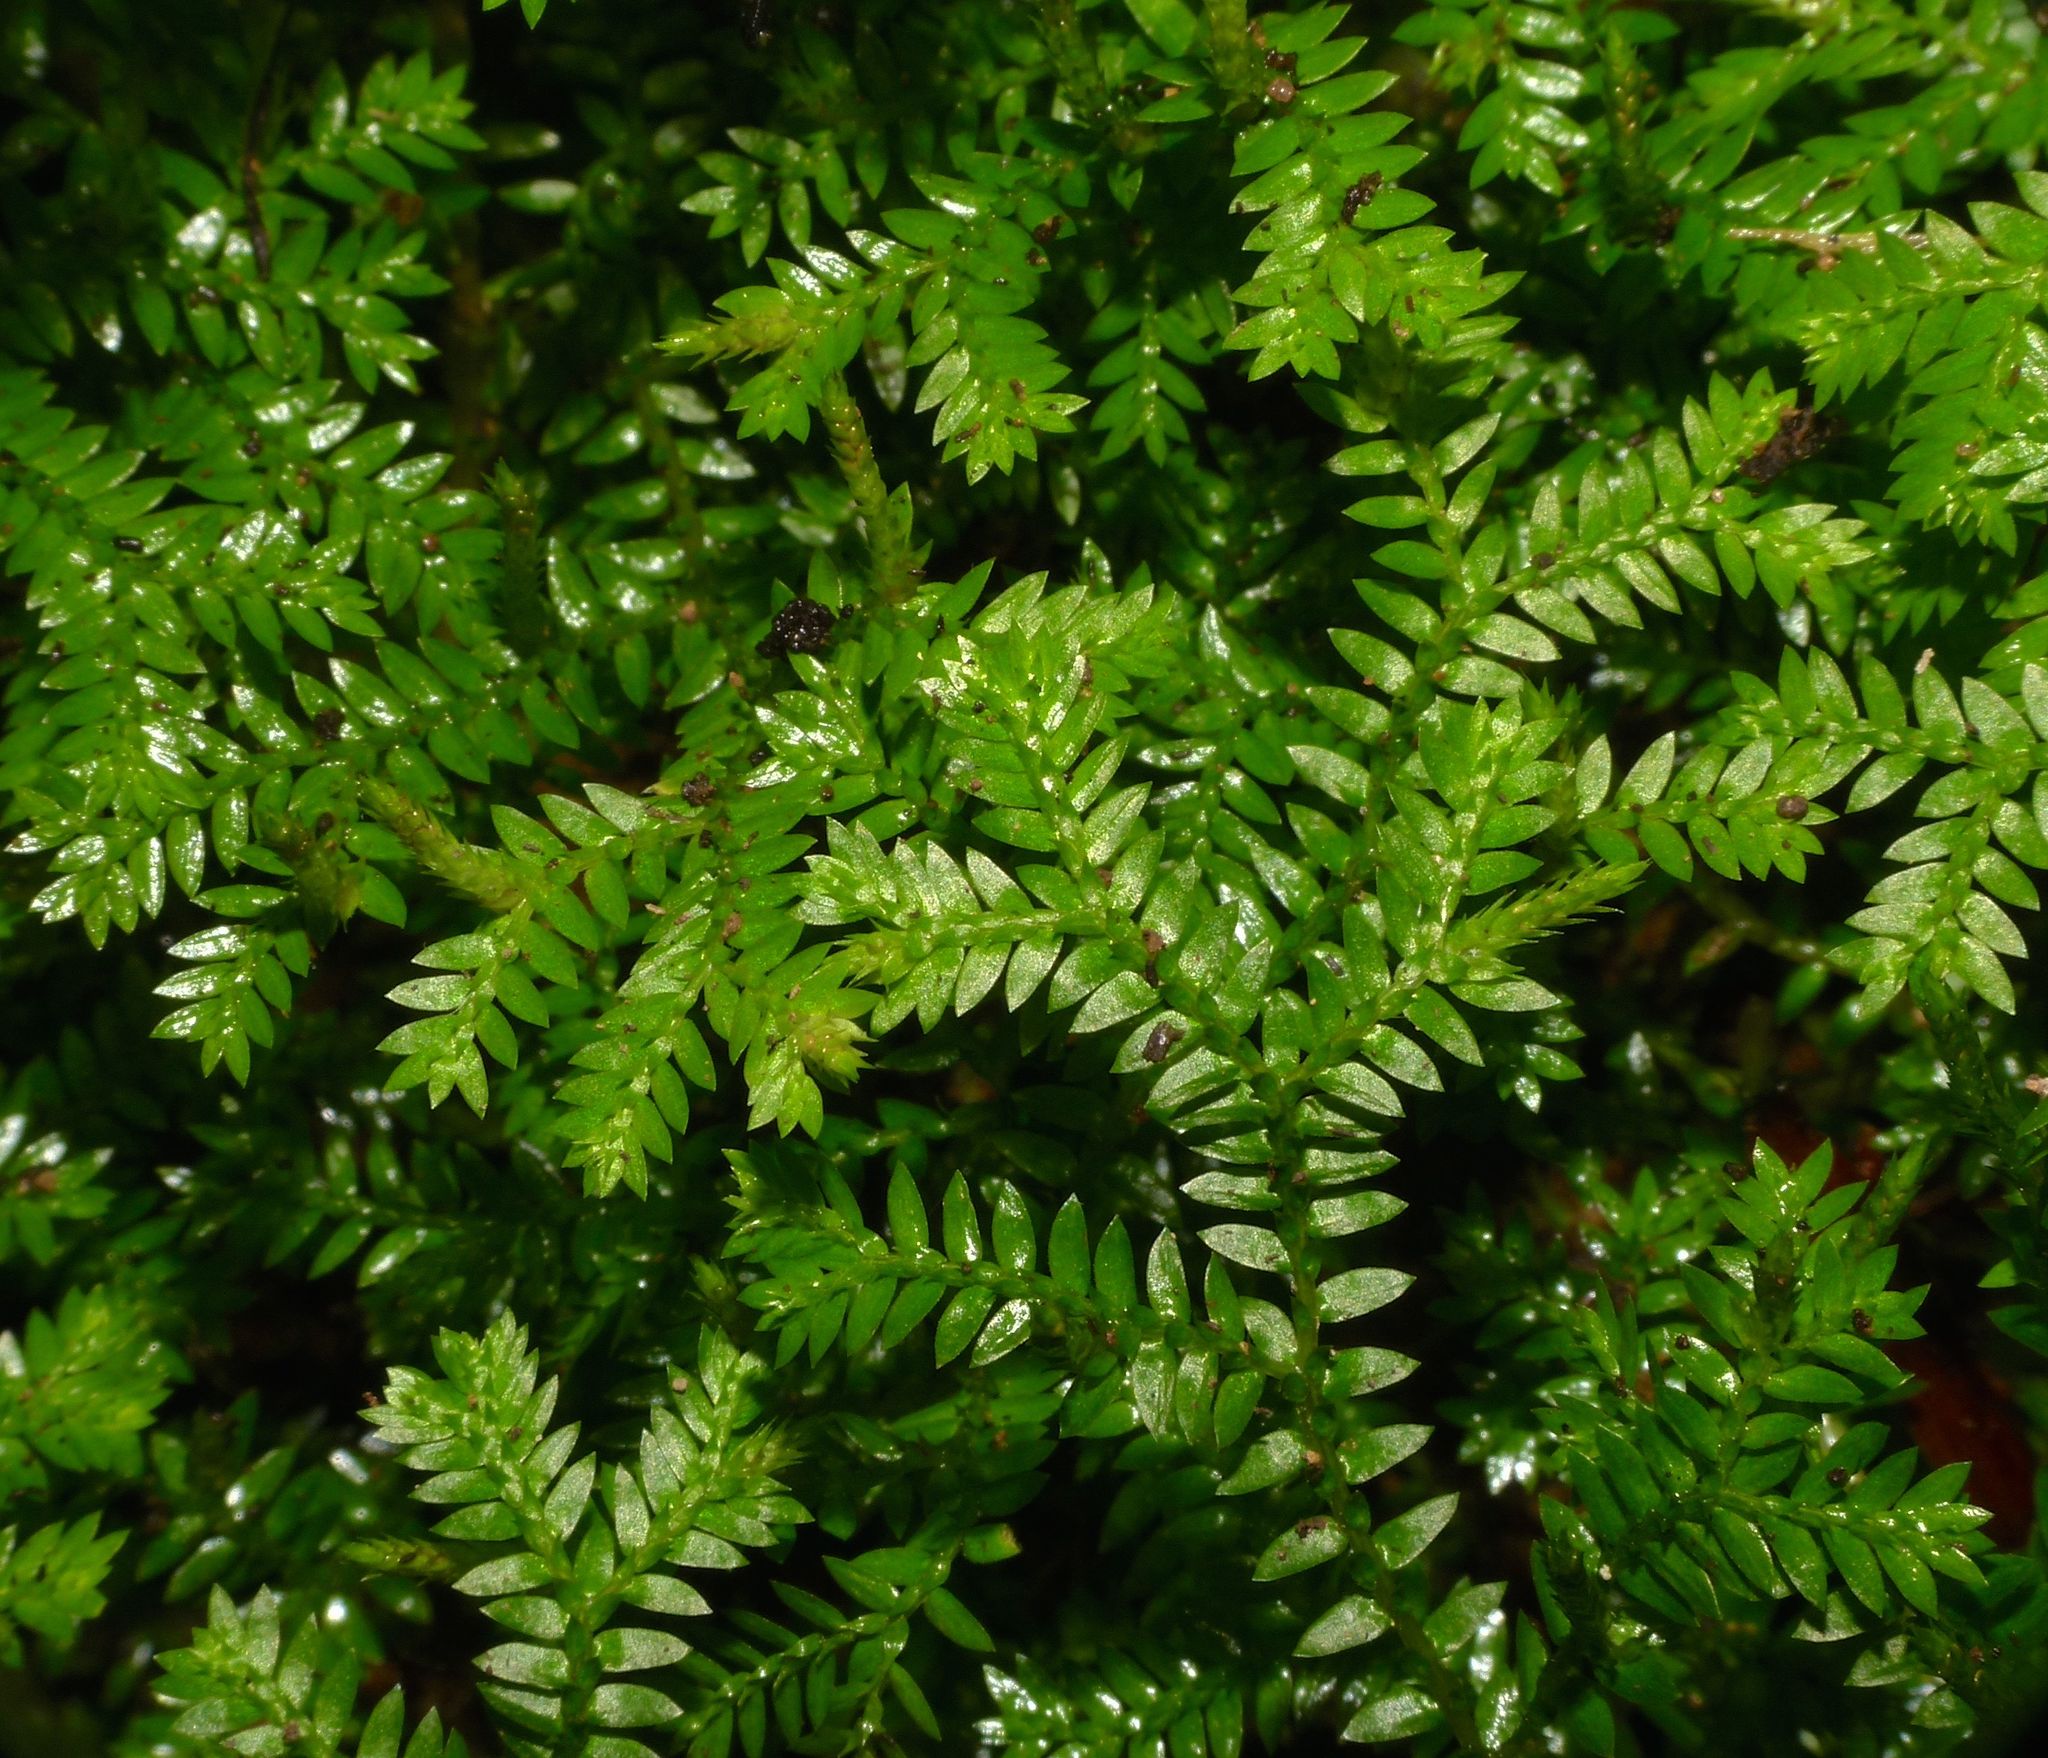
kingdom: Plantae
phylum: Tracheophyta
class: Lycopodiopsida
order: Selaginellales
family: Selaginellaceae
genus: Selaginella
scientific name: Selaginella kraussiana
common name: Krauss' spikemoss
